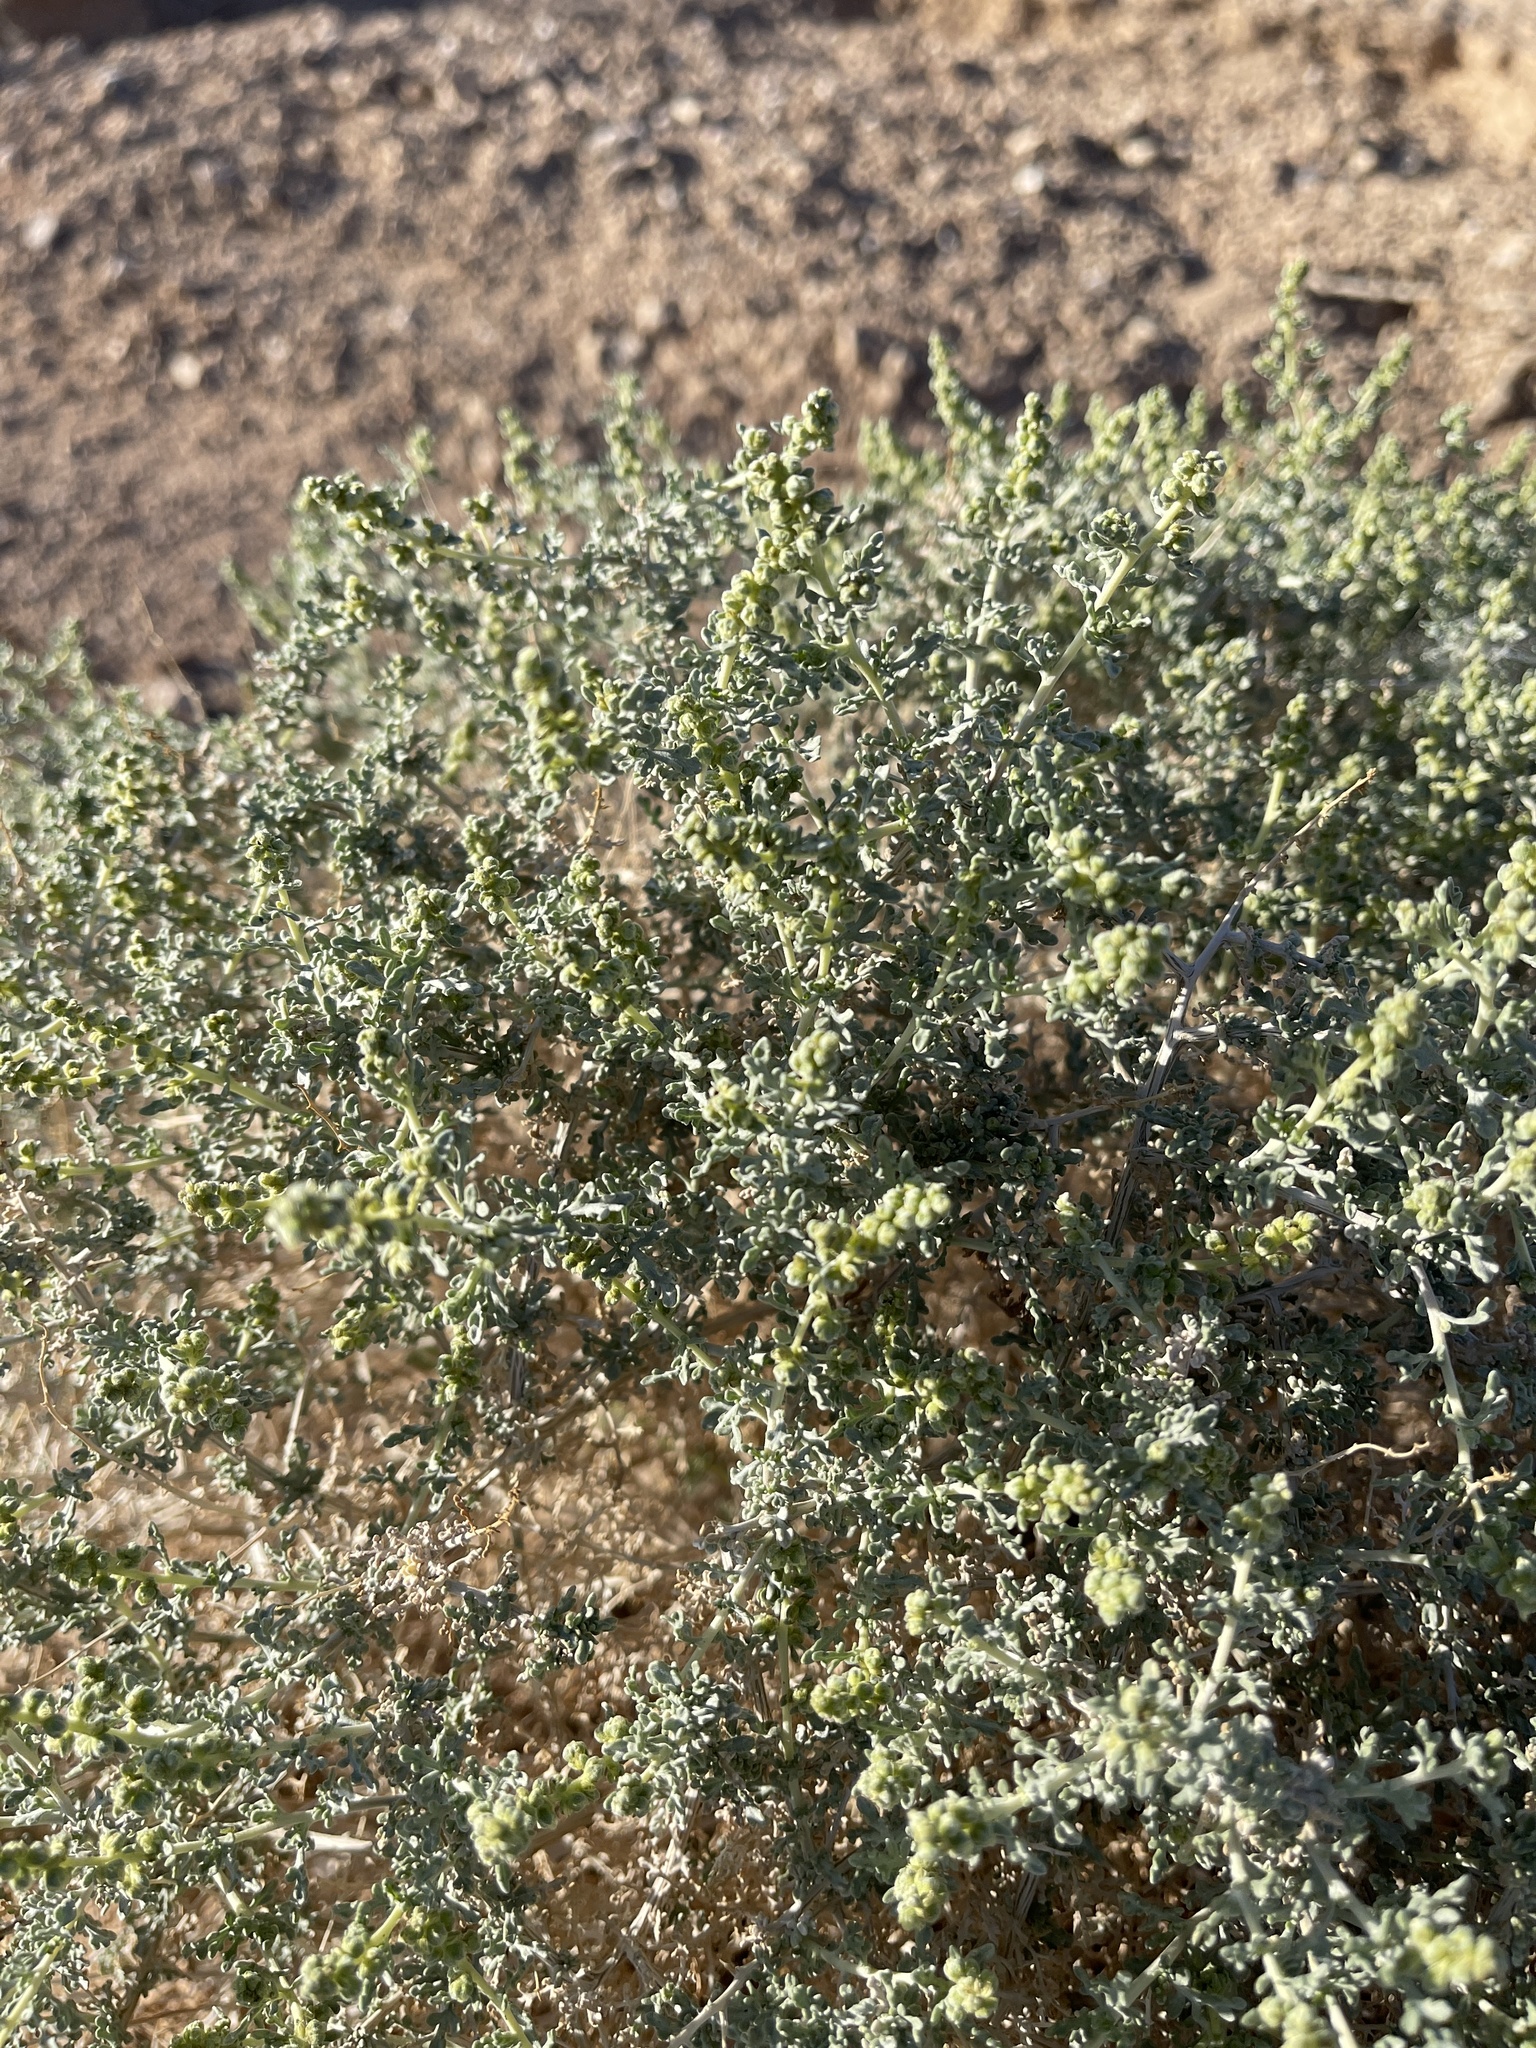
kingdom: Plantae
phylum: Tracheophyta
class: Magnoliopsida
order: Asterales
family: Asteraceae
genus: Ambrosia
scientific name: Ambrosia dumosa
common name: Bur-sage
